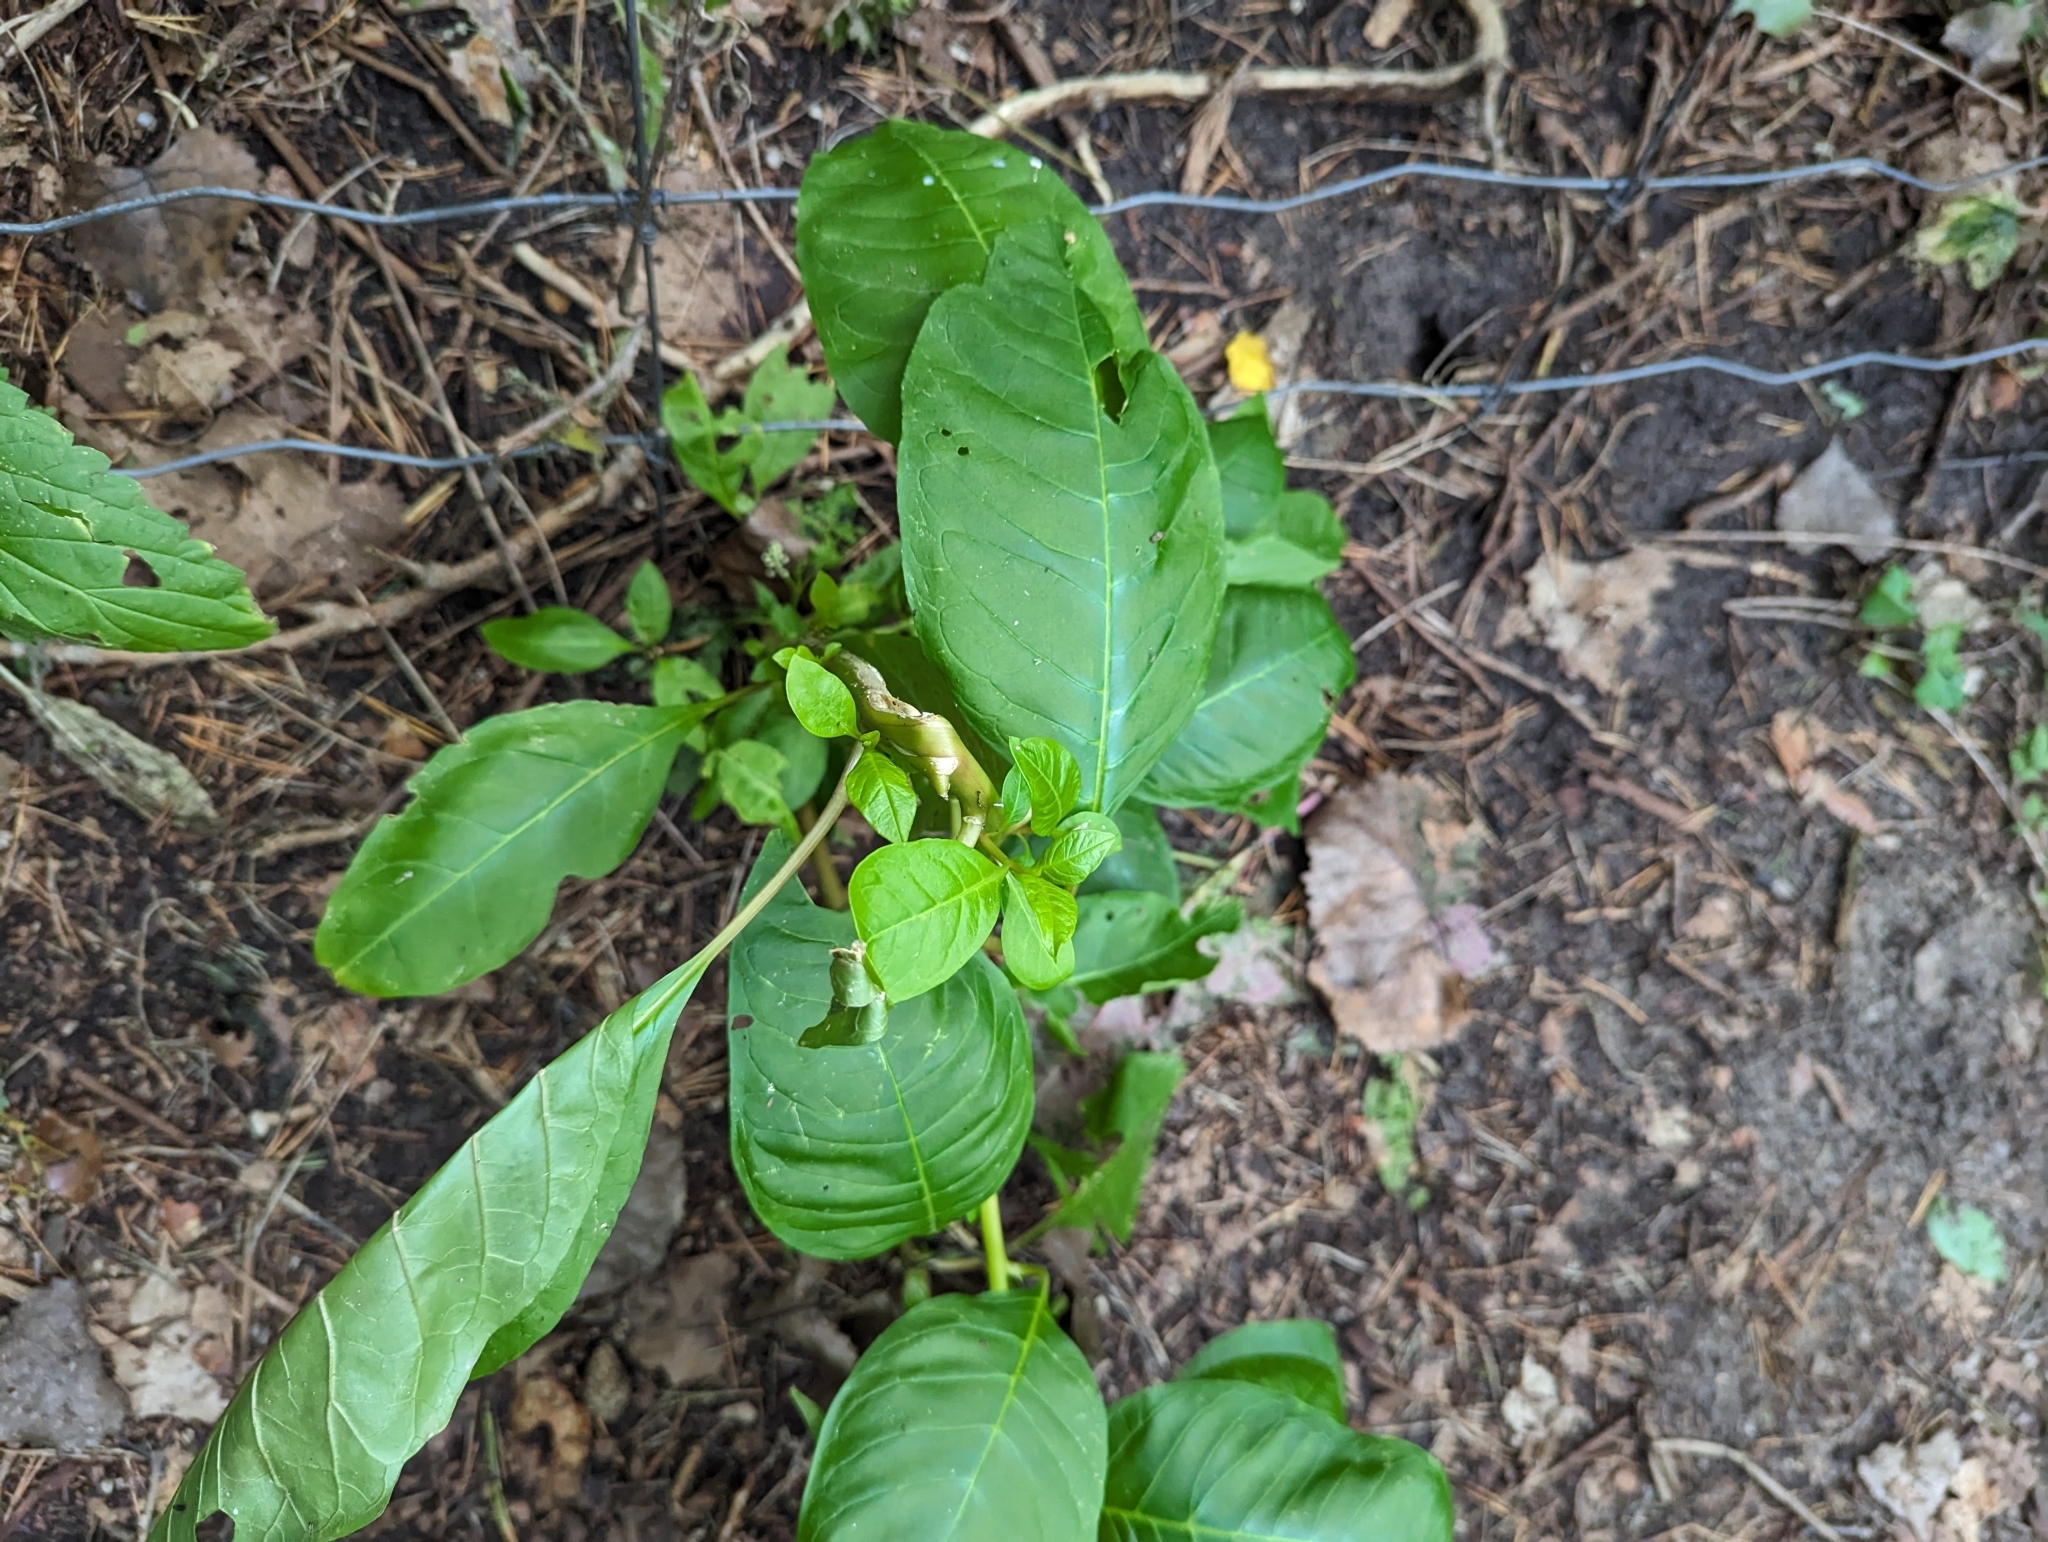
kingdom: Plantae
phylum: Tracheophyta
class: Magnoliopsida
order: Caryophyllales
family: Phytolaccaceae
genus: Phytolacca
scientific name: Phytolacca americana
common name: American pokeweed
